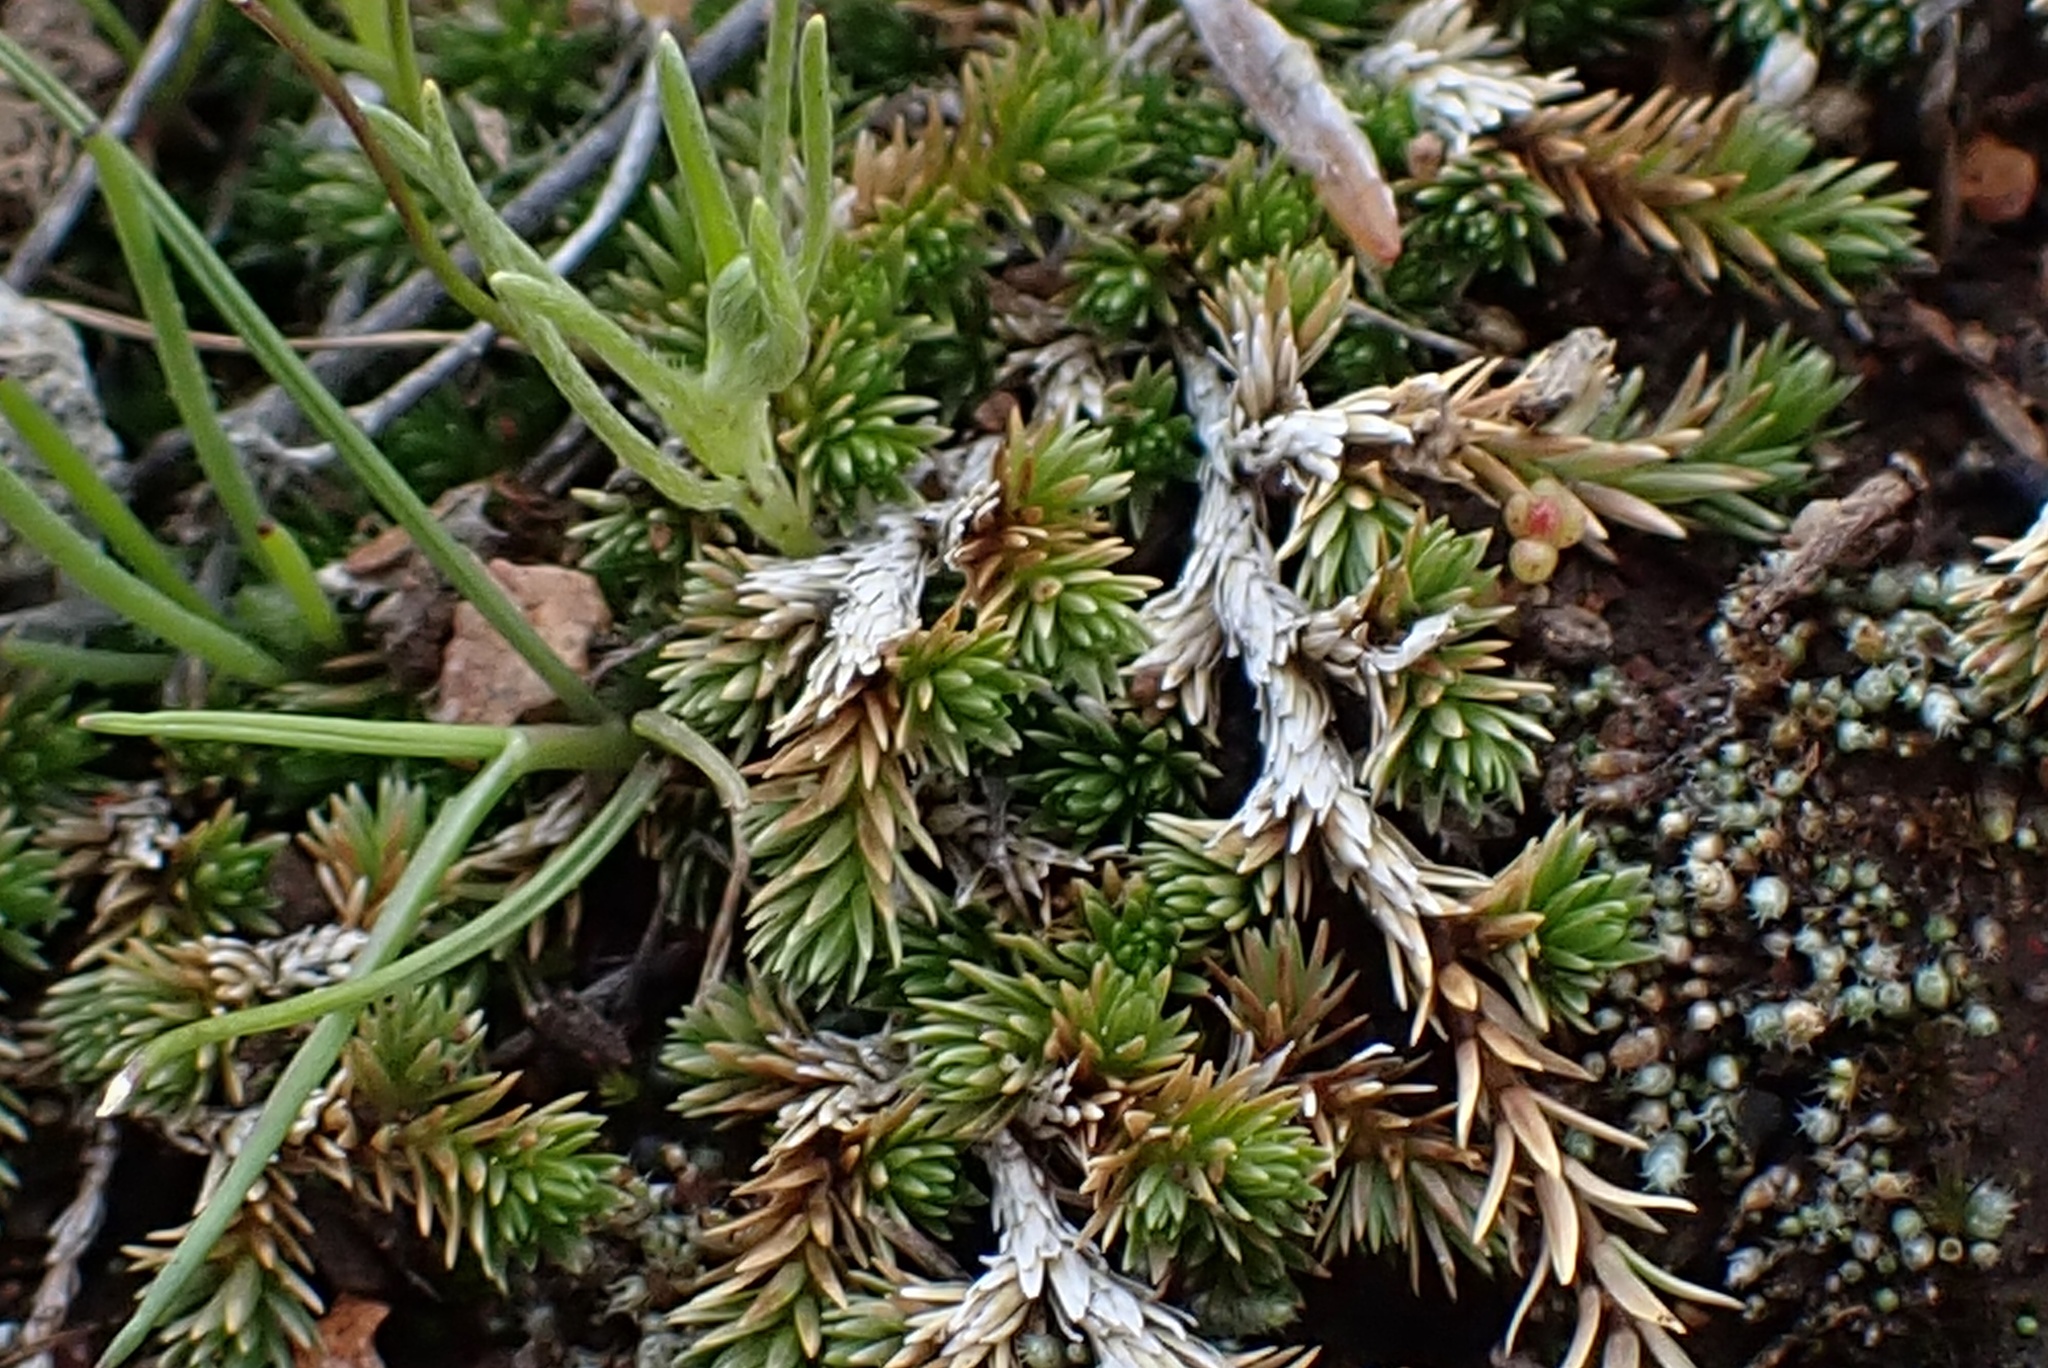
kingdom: Plantae
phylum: Tracheophyta
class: Lycopodiopsida
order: Selaginellales
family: Selaginellaceae
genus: Selaginella
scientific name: Selaginella cinerascens
